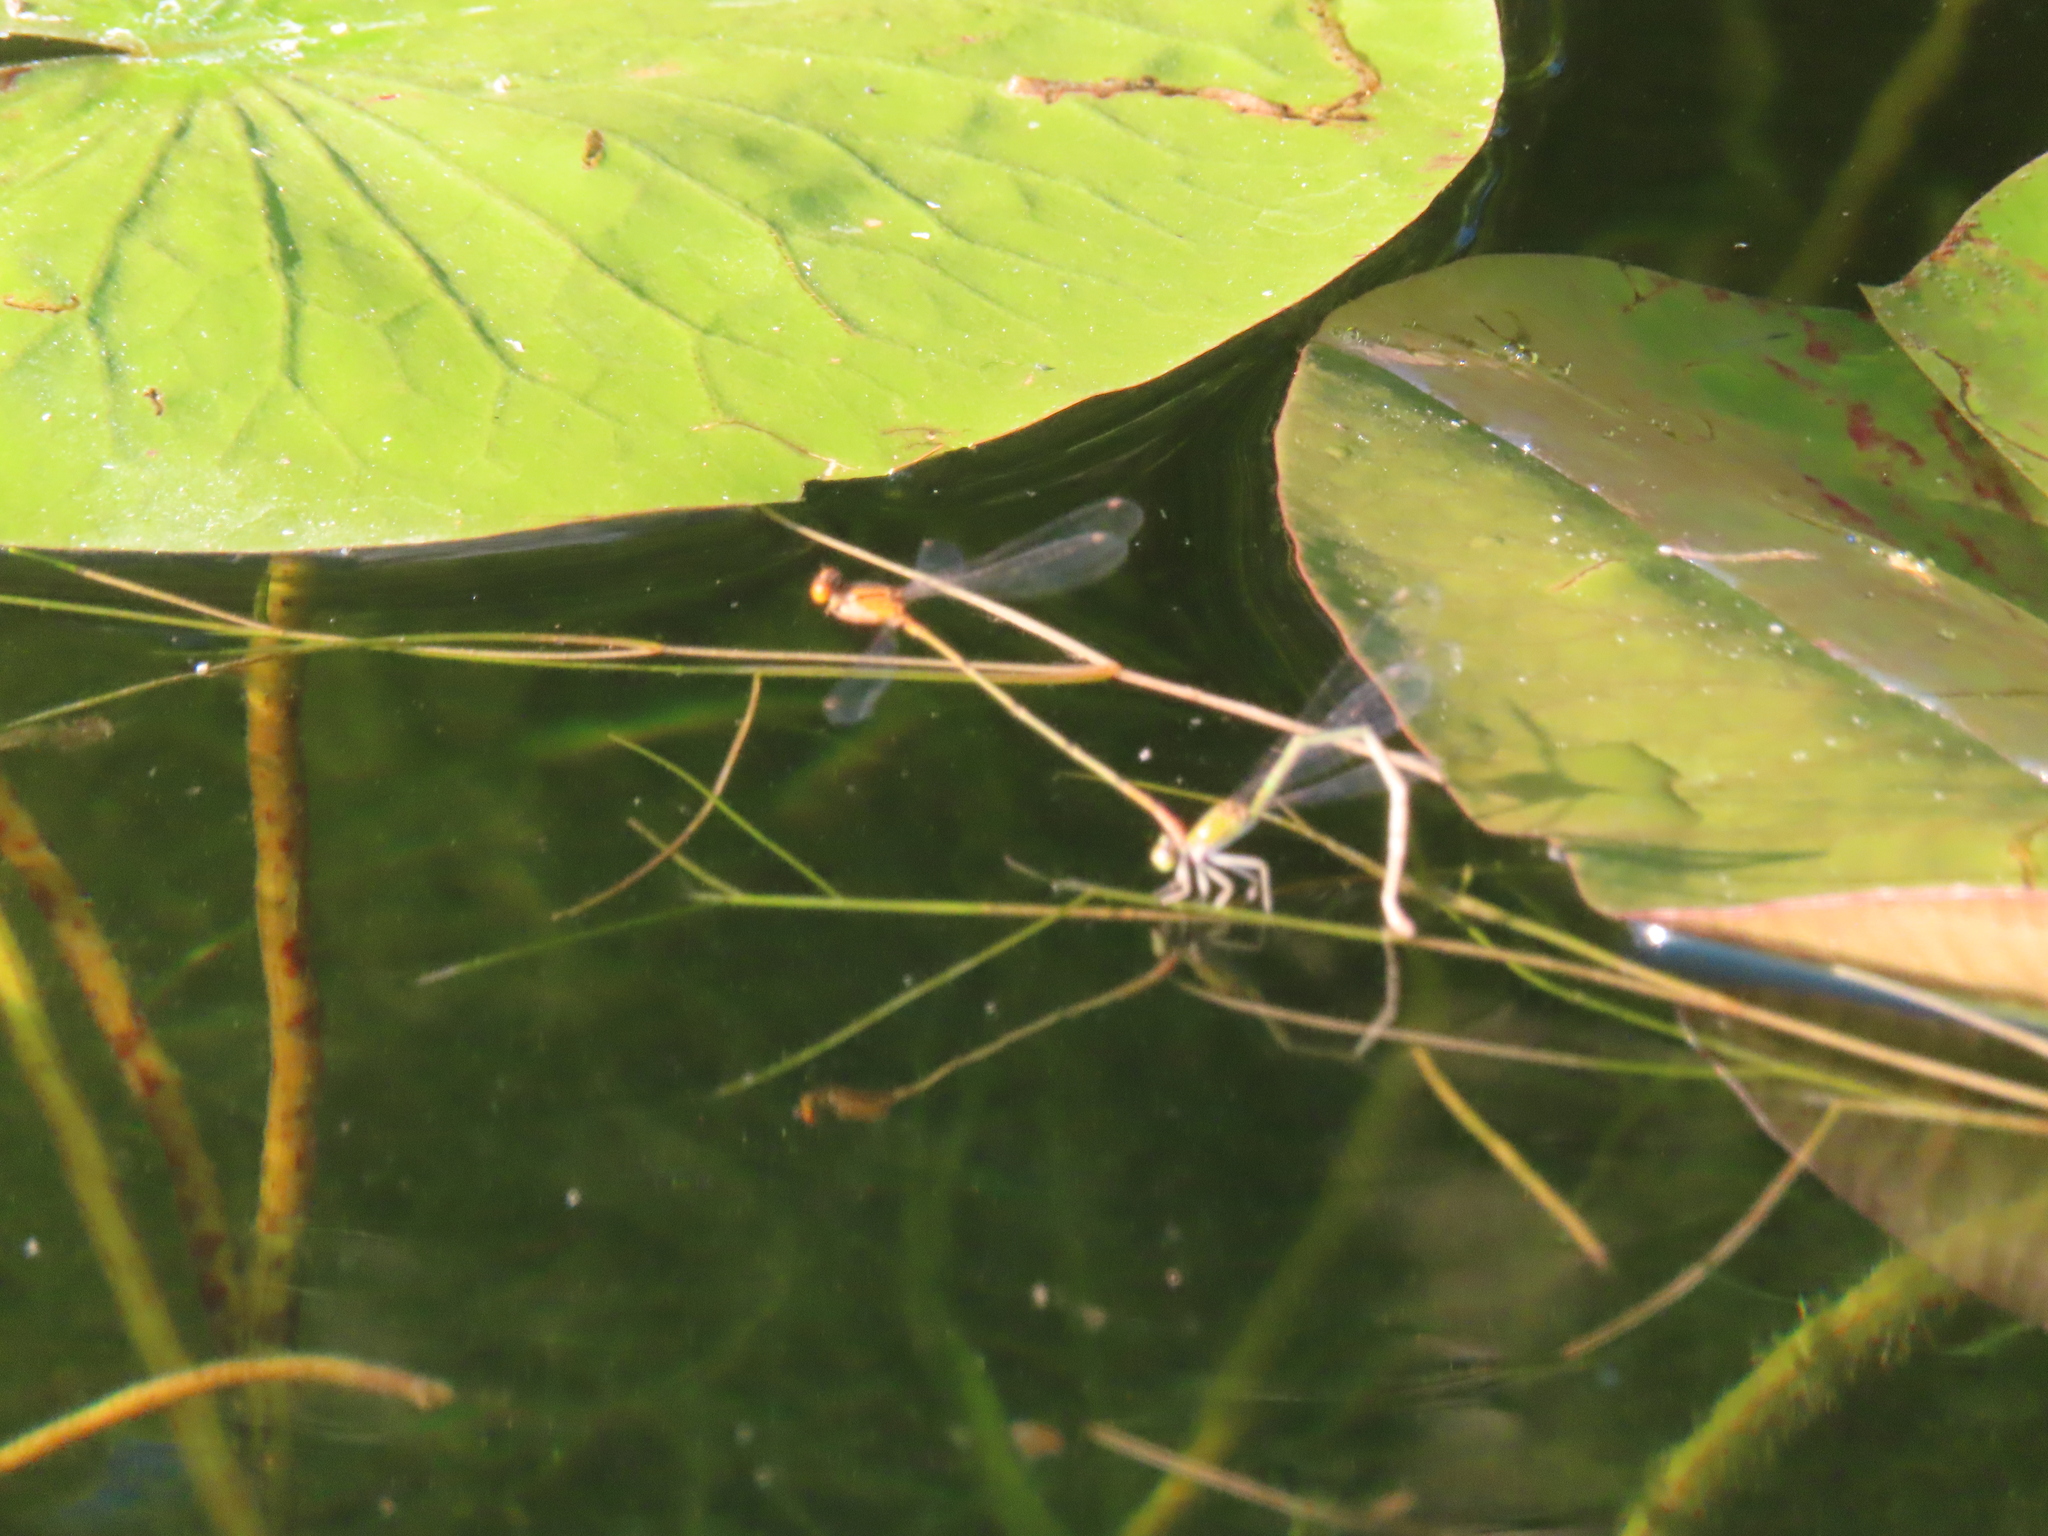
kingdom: Animalia
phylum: Arthropoda
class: Insecta
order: Odonata
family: Coenagrionidae
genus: Enallagma
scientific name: Enallagma signatum
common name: Orange bluet
